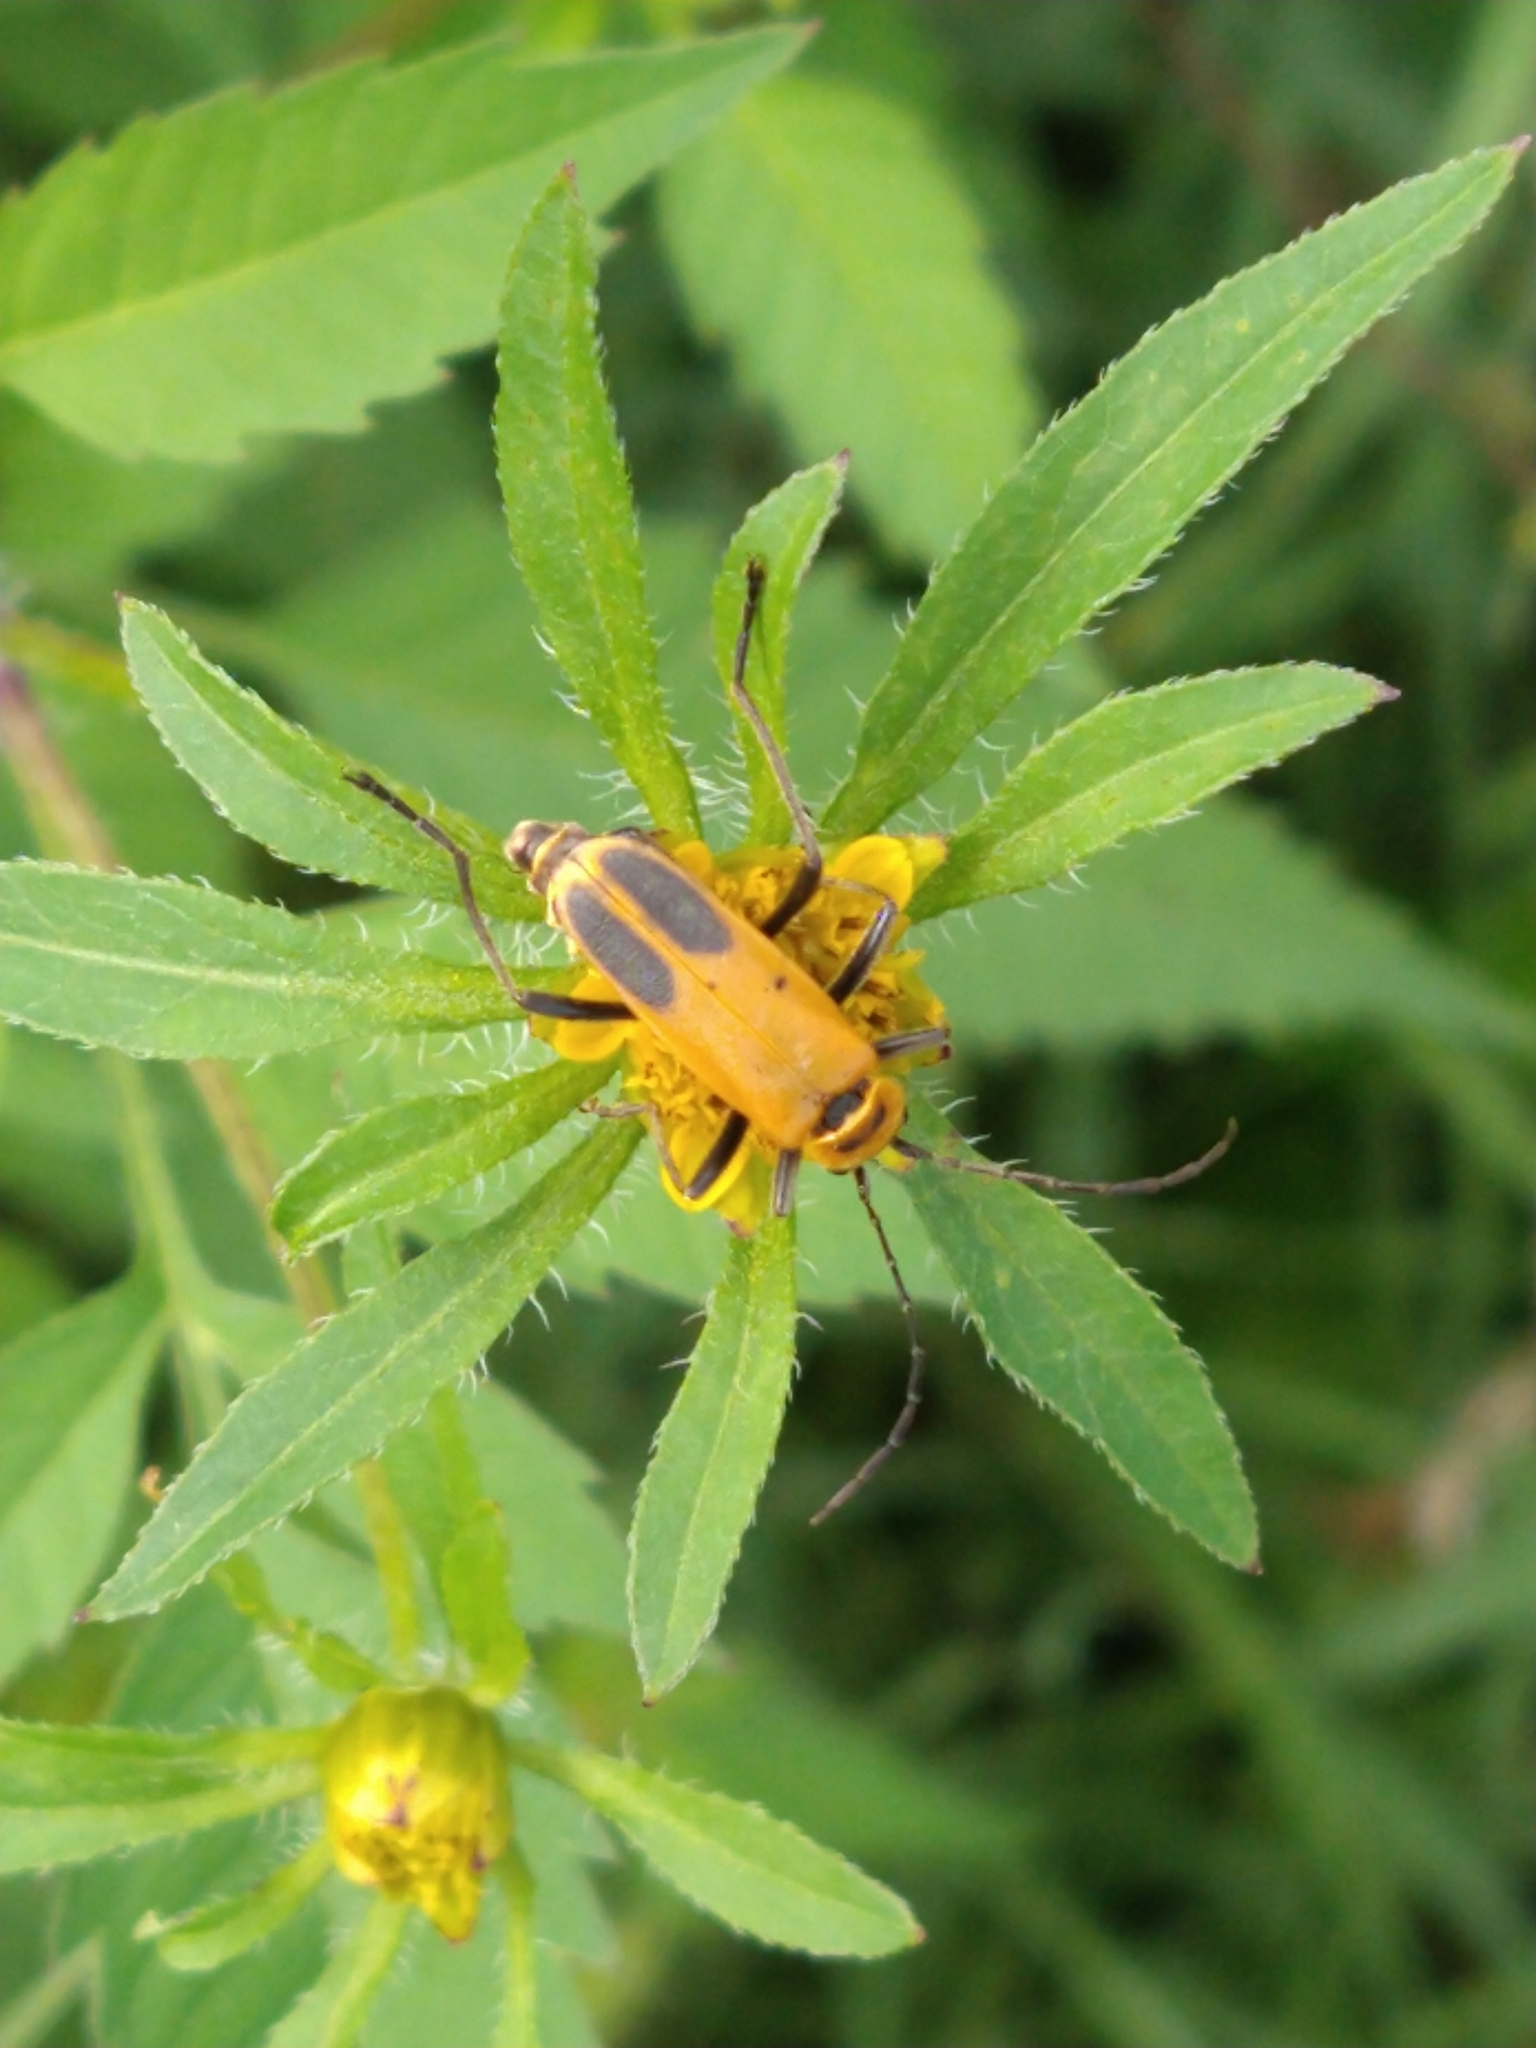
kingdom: Animalia
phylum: Arthropoda
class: Insecta
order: Coleoptera
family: Cantharidae
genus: Chauliognathus
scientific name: Chauliognathus pensylvanicus
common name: Goldenrod soldier beetle
